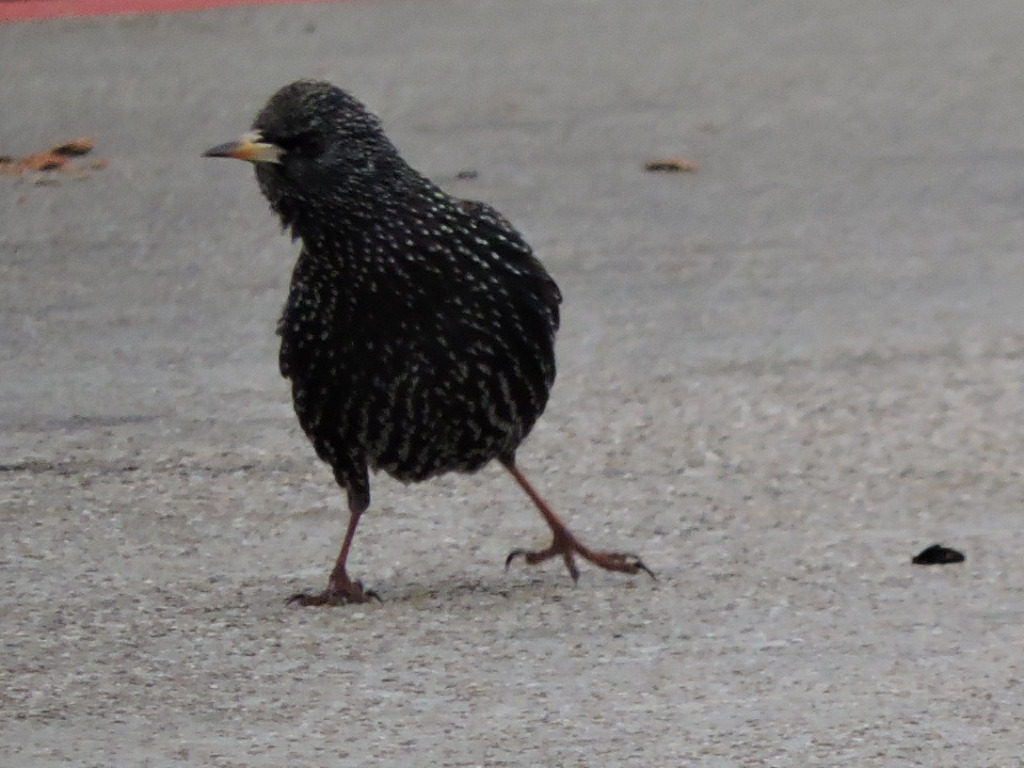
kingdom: Animalia
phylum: Chordata
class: Aves
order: Passeriformes
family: Sturnidae
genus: Sturnus
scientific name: Sturnus vulgaris
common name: Common starling
